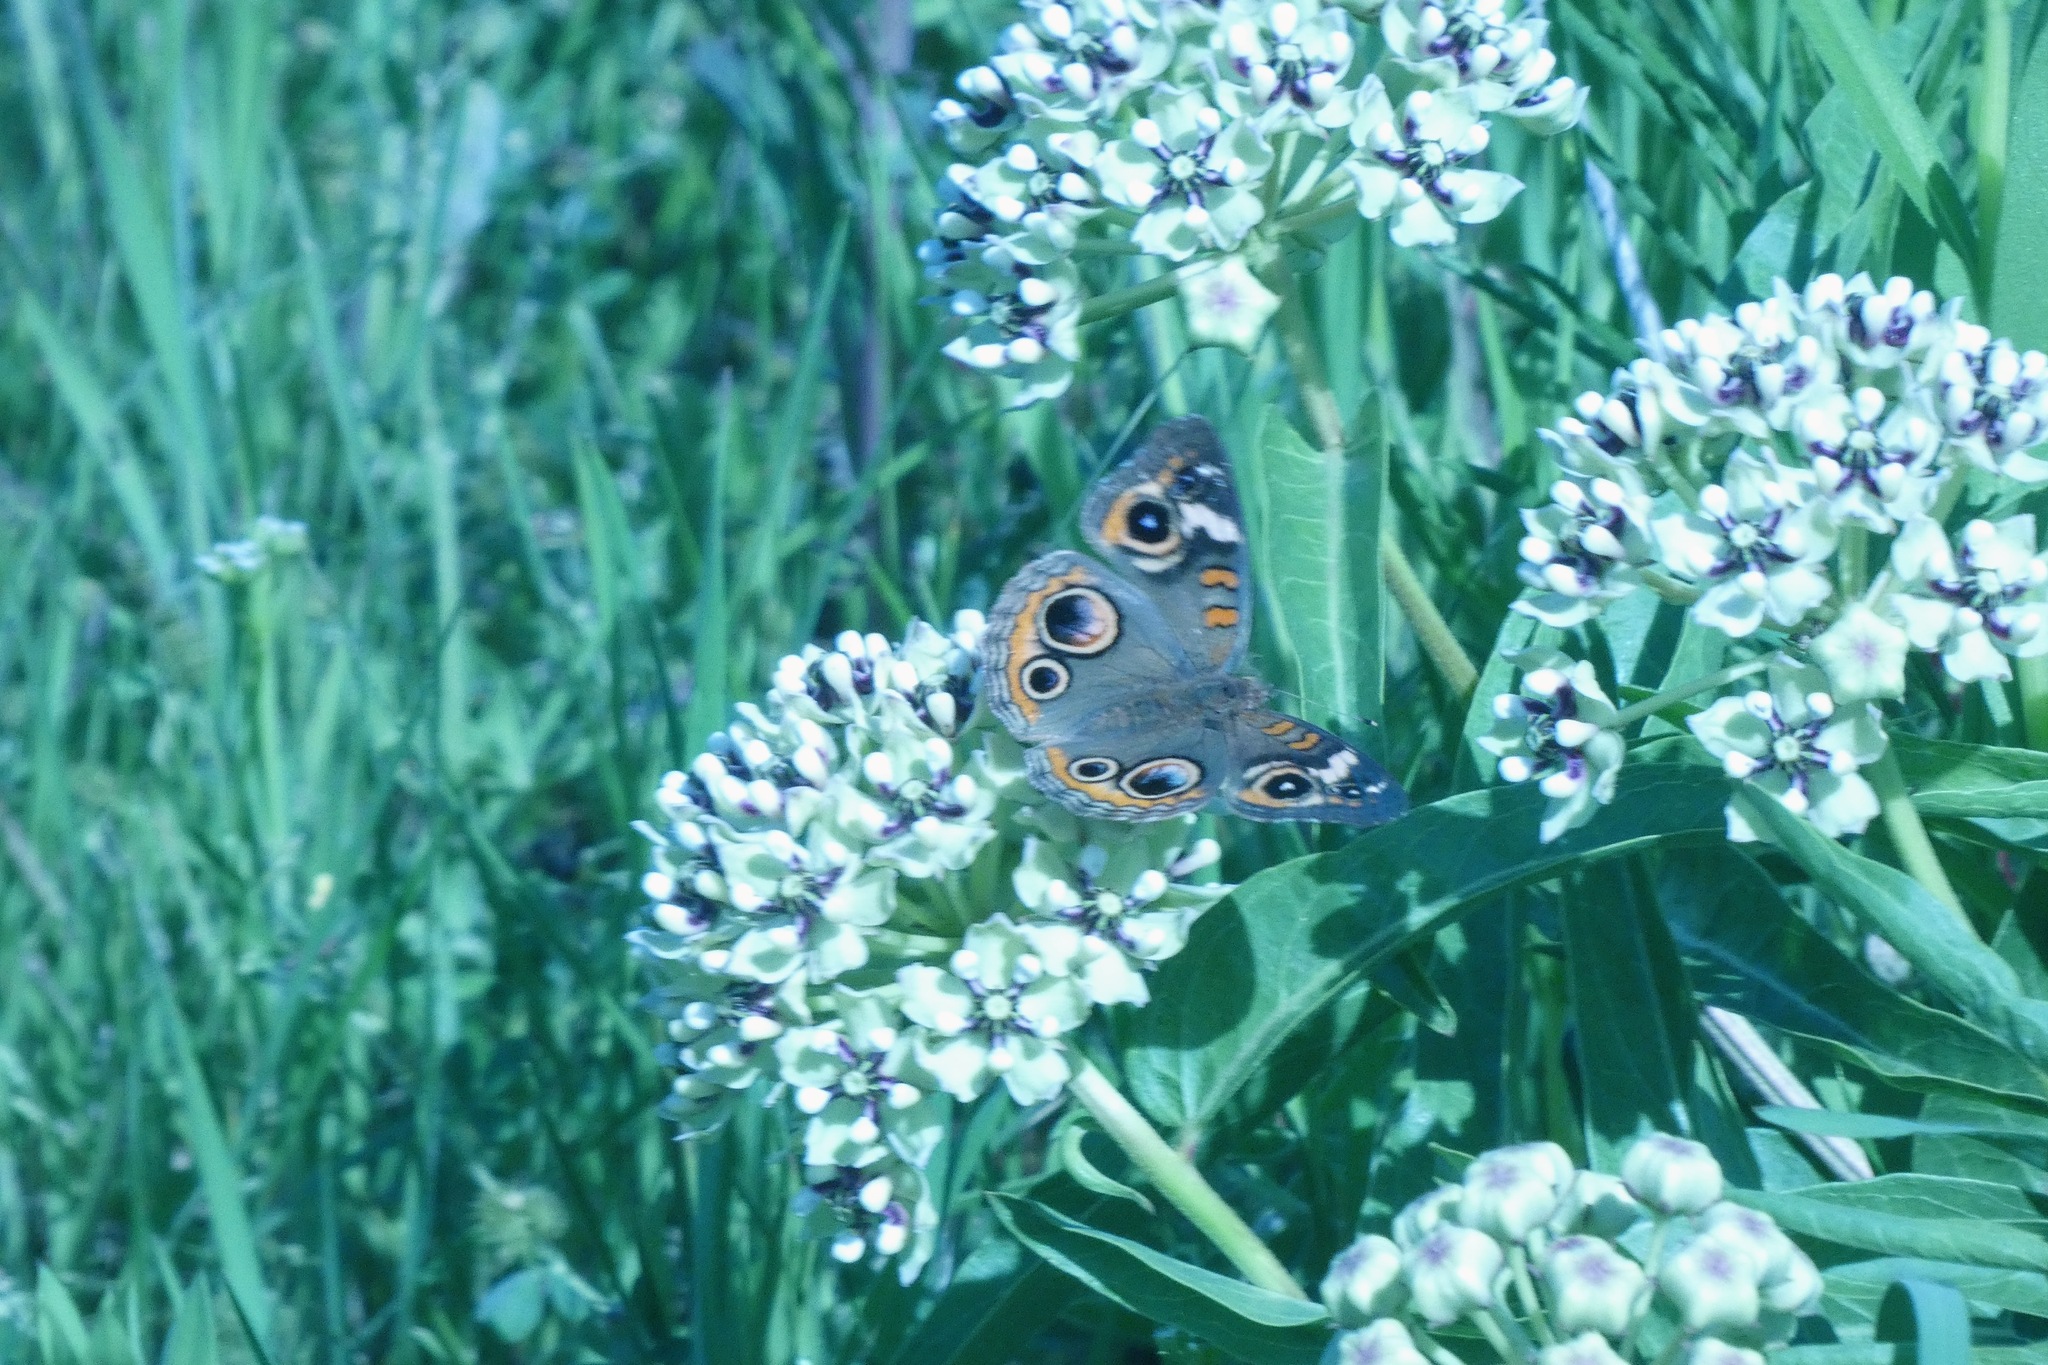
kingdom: Animalia
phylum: Arthropoda
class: Insecta
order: Lepidoptera
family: Nymphalidae
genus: Junonia
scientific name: Junonia coenia
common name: Common buckeye
